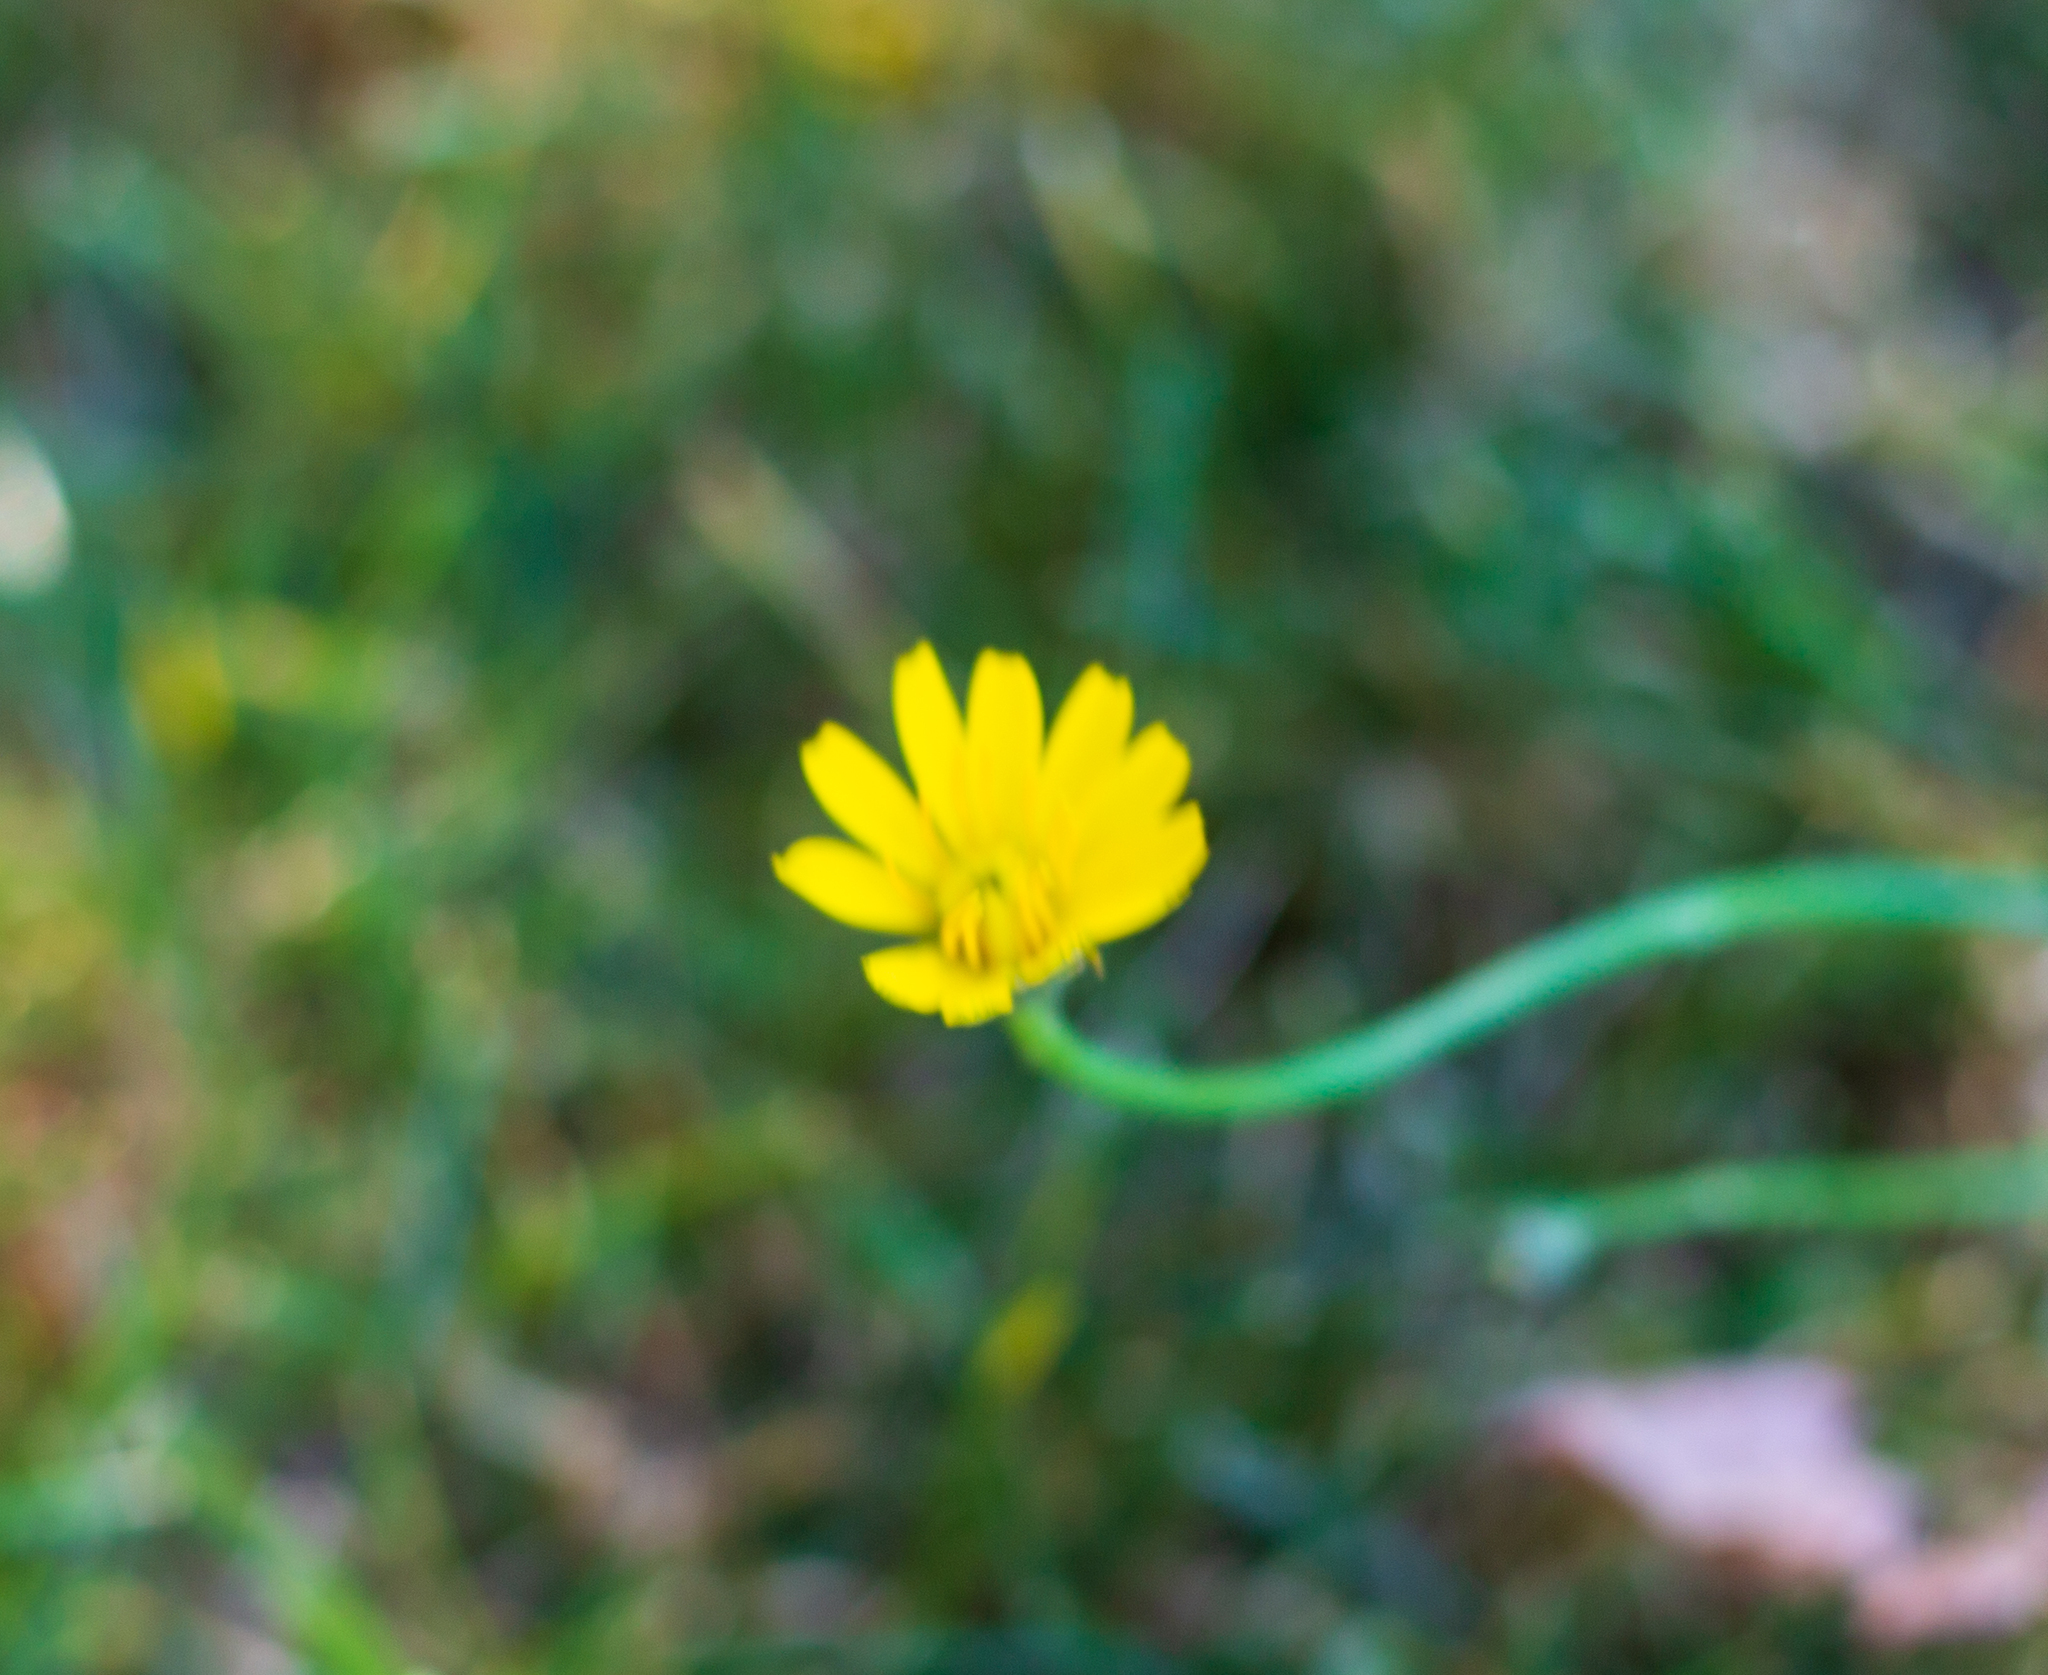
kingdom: Plantae
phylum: Tracheophyta
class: Magnoliopsida
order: Asterales
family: Asteraceae
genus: Hypochaeris
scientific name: Hypochaeris radicata
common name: Flatweed
